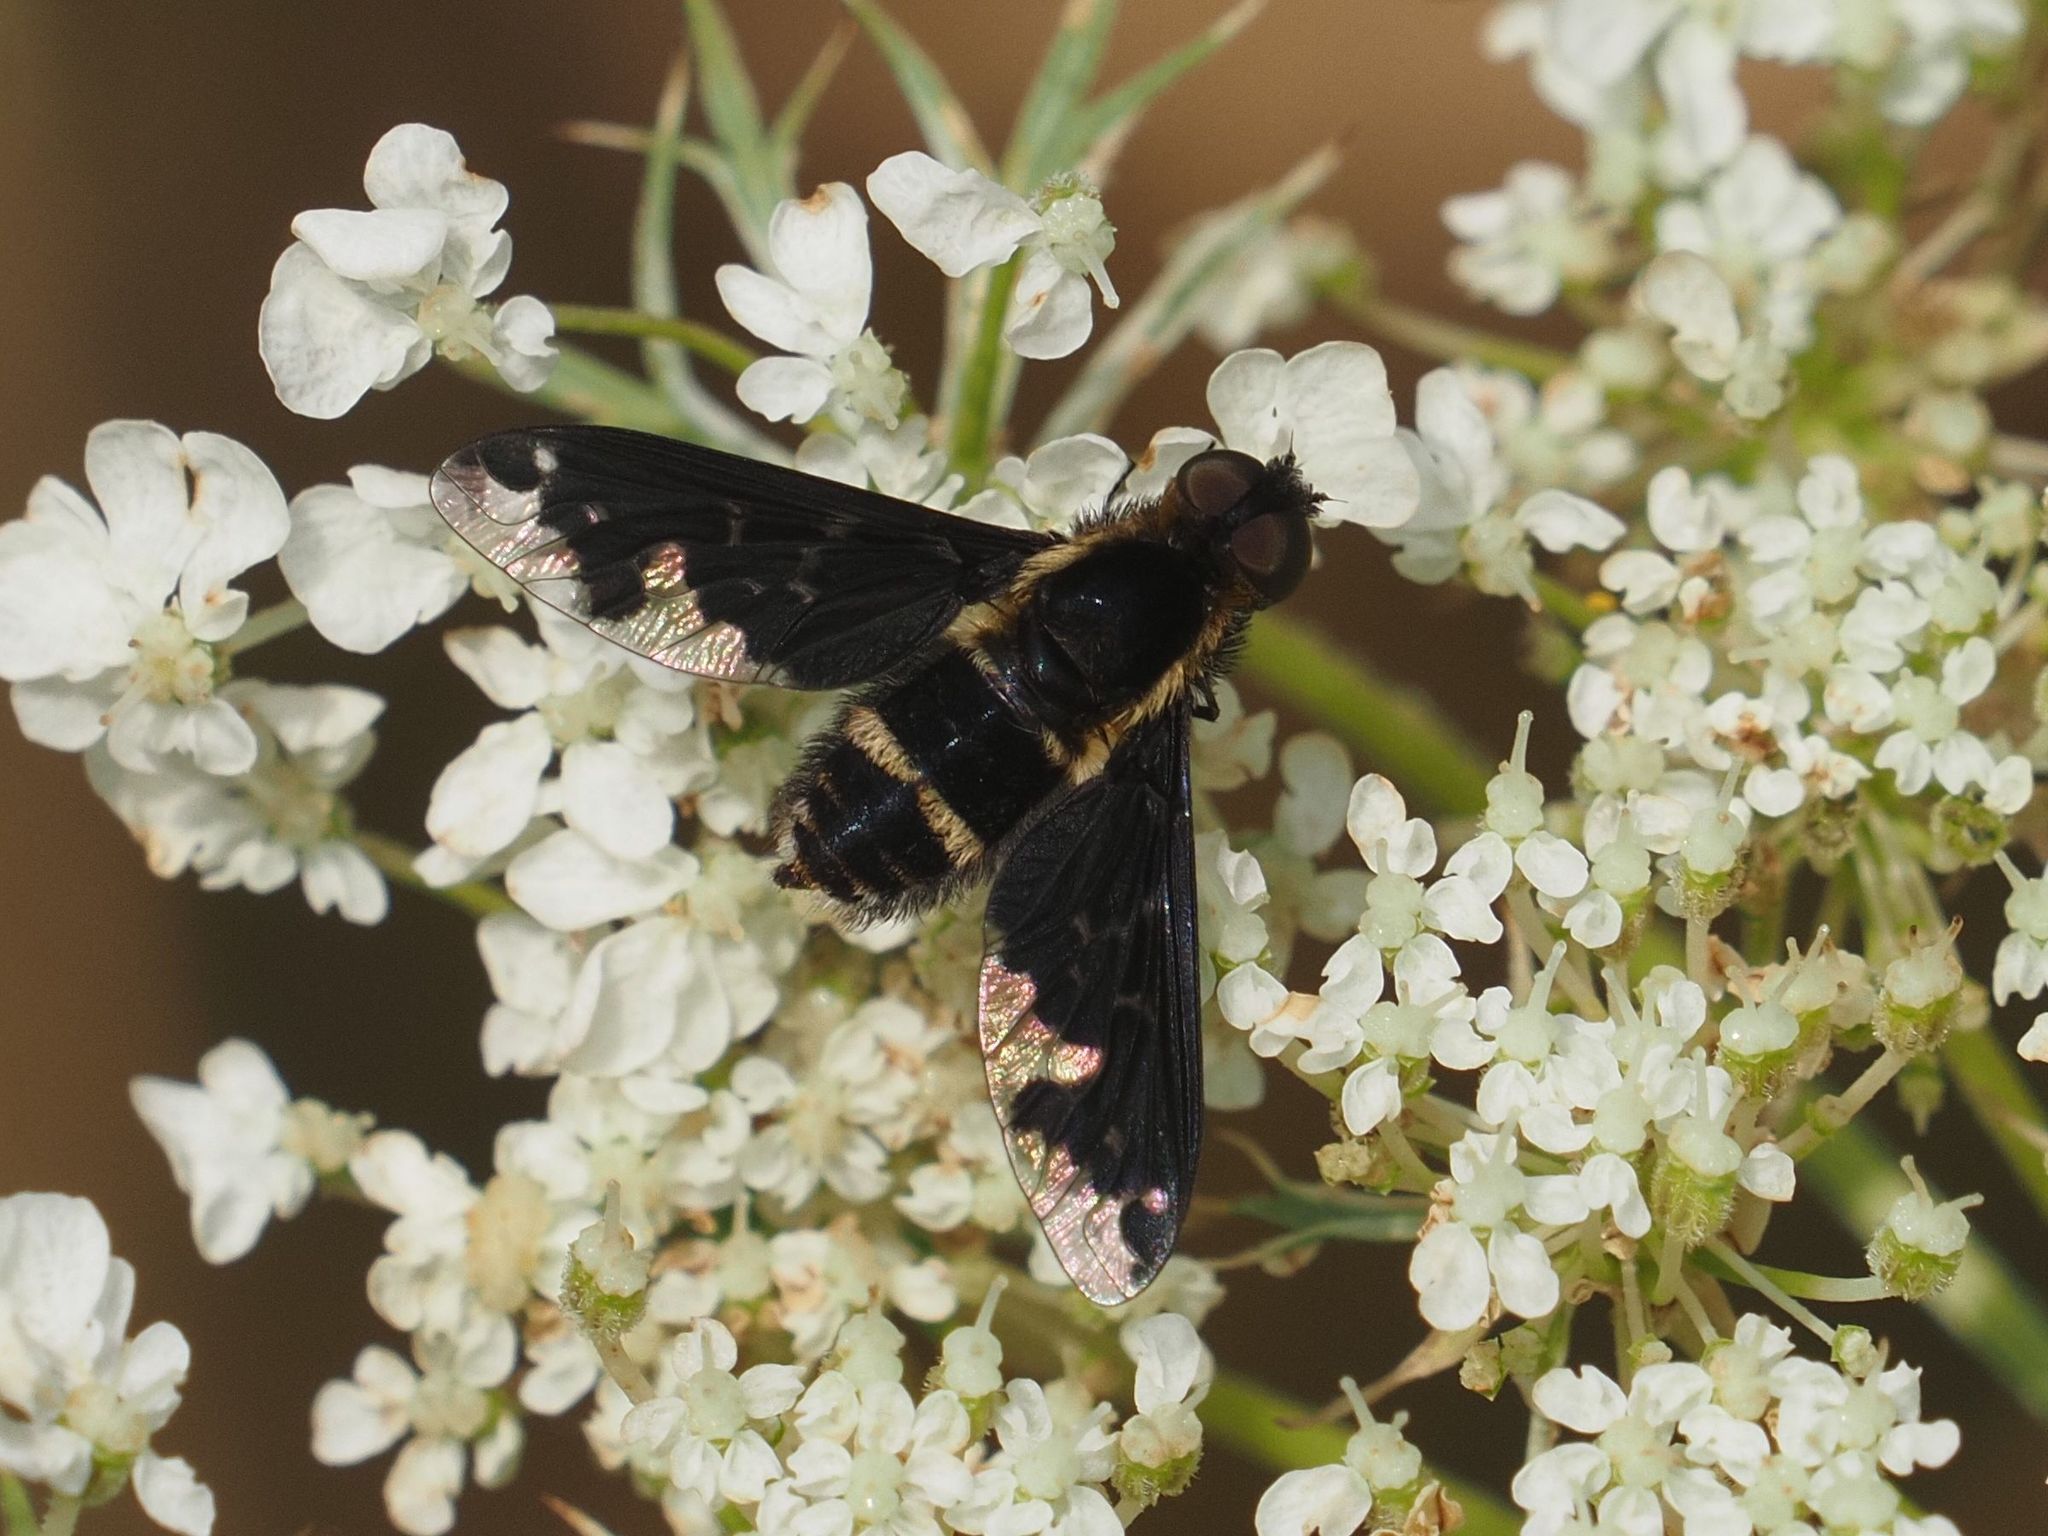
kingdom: Animalia
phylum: Arthropoda
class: Insecta
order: Diptera
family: Bombyliidae
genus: Hemipenthes
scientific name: Hemipenthes maura
